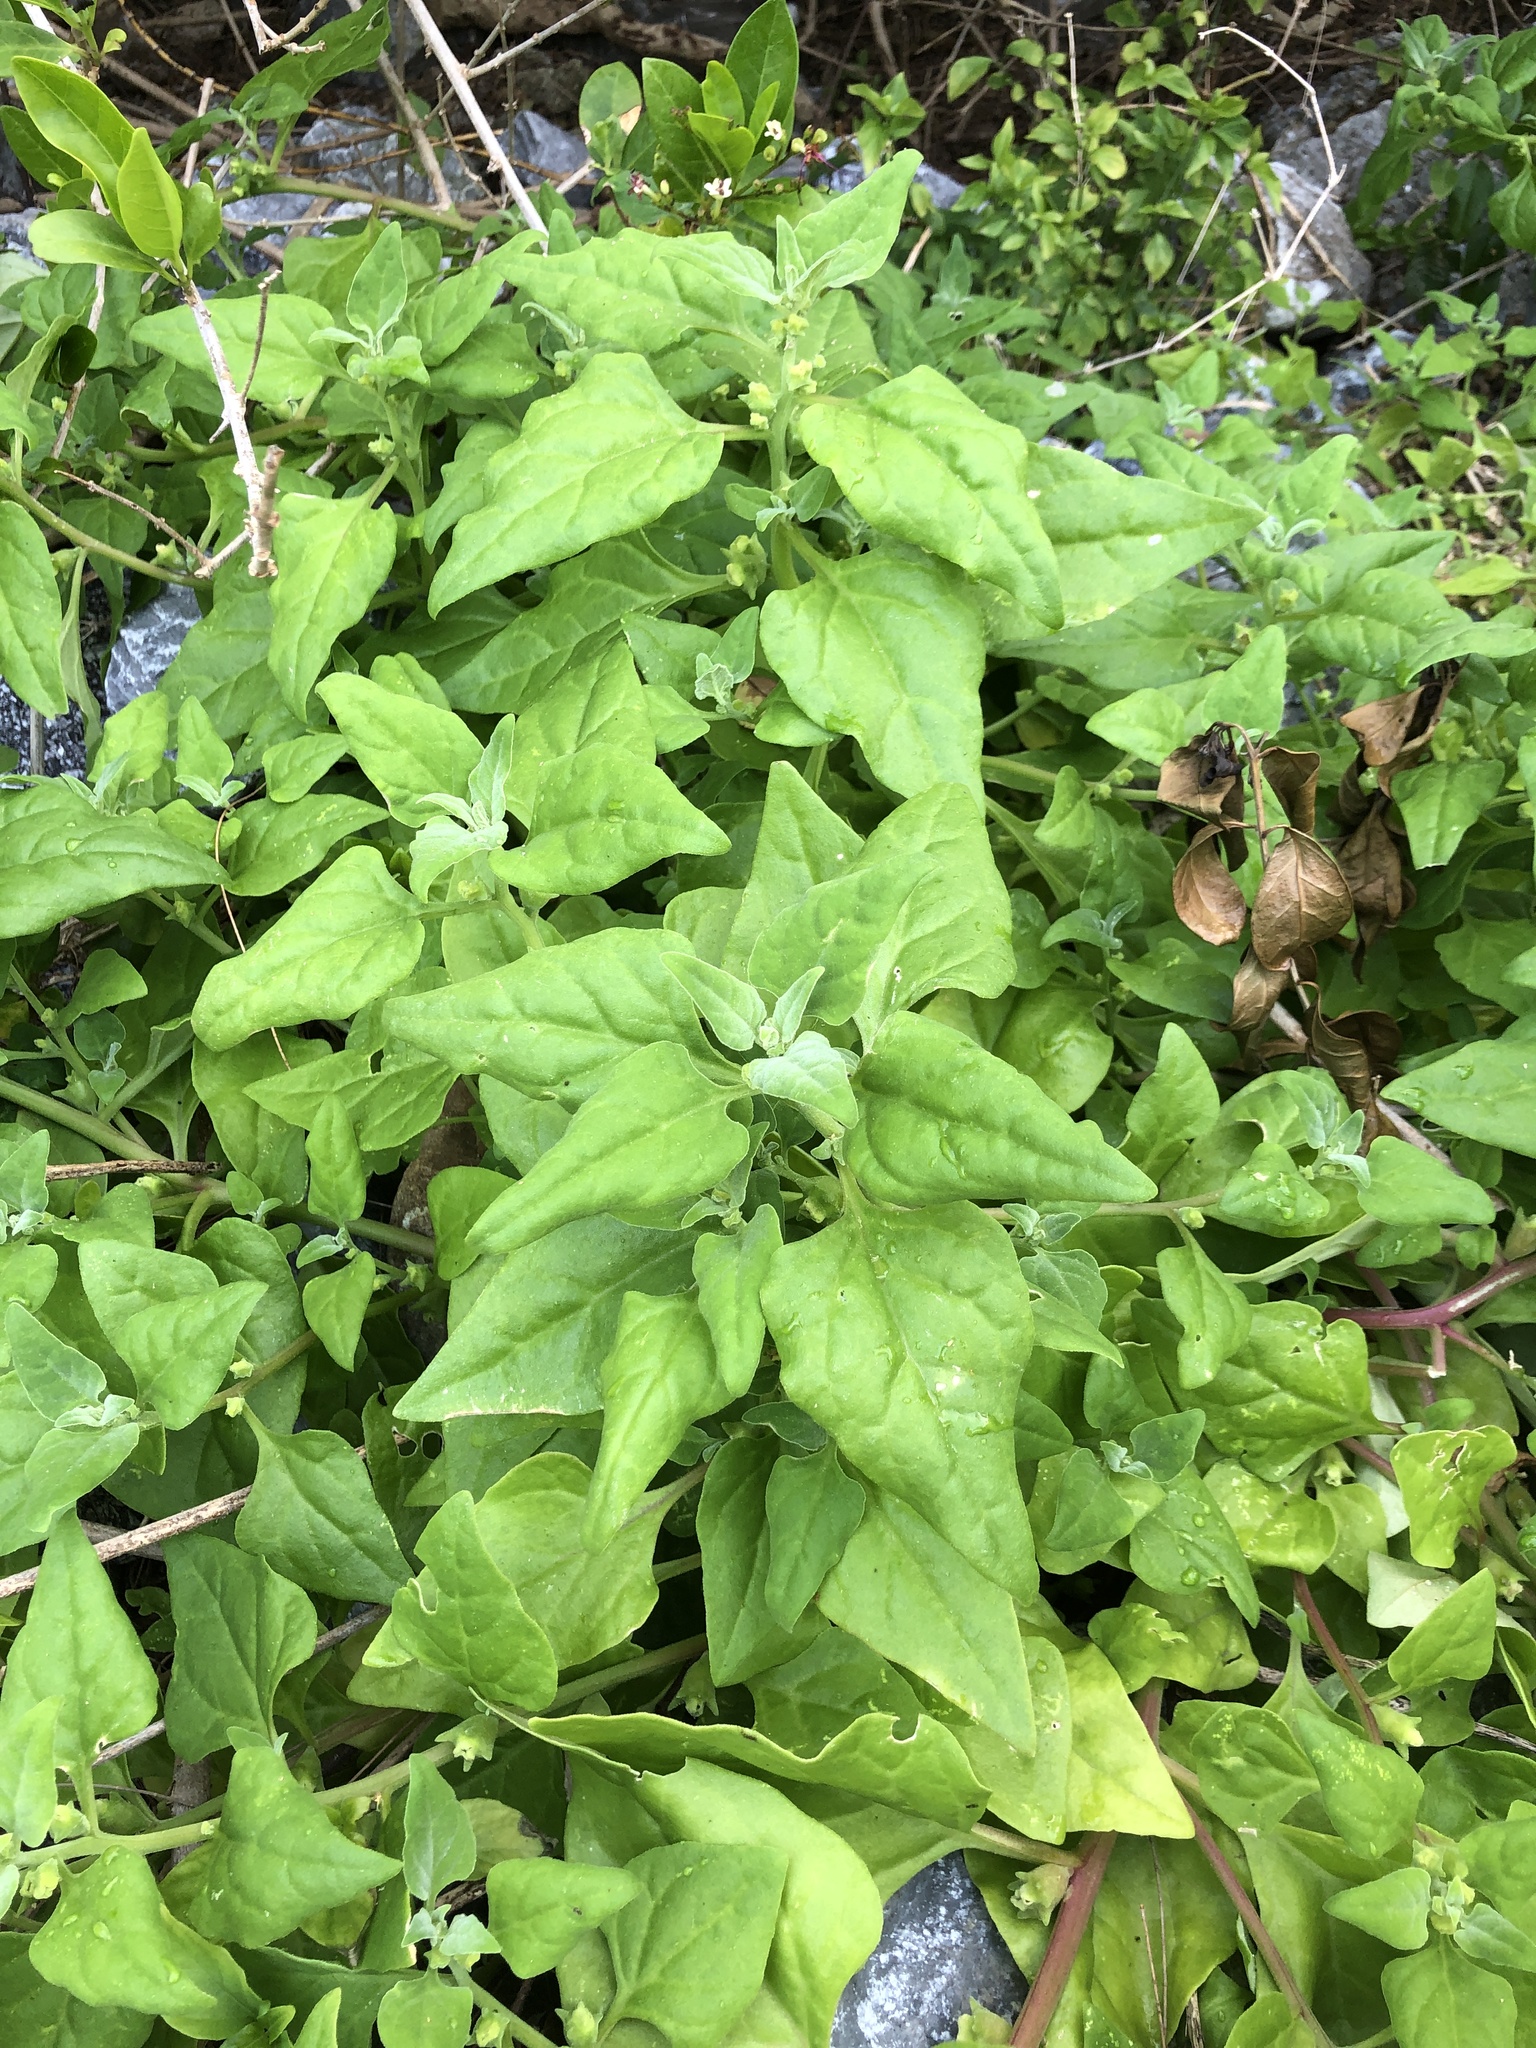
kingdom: Plantae
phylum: Tracheophyta
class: Magnoliopsida
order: Caryophyllales
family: Aizoaceae
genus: Tetragonia
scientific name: Tetragonia tetragonoides
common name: New zealand-spinach
